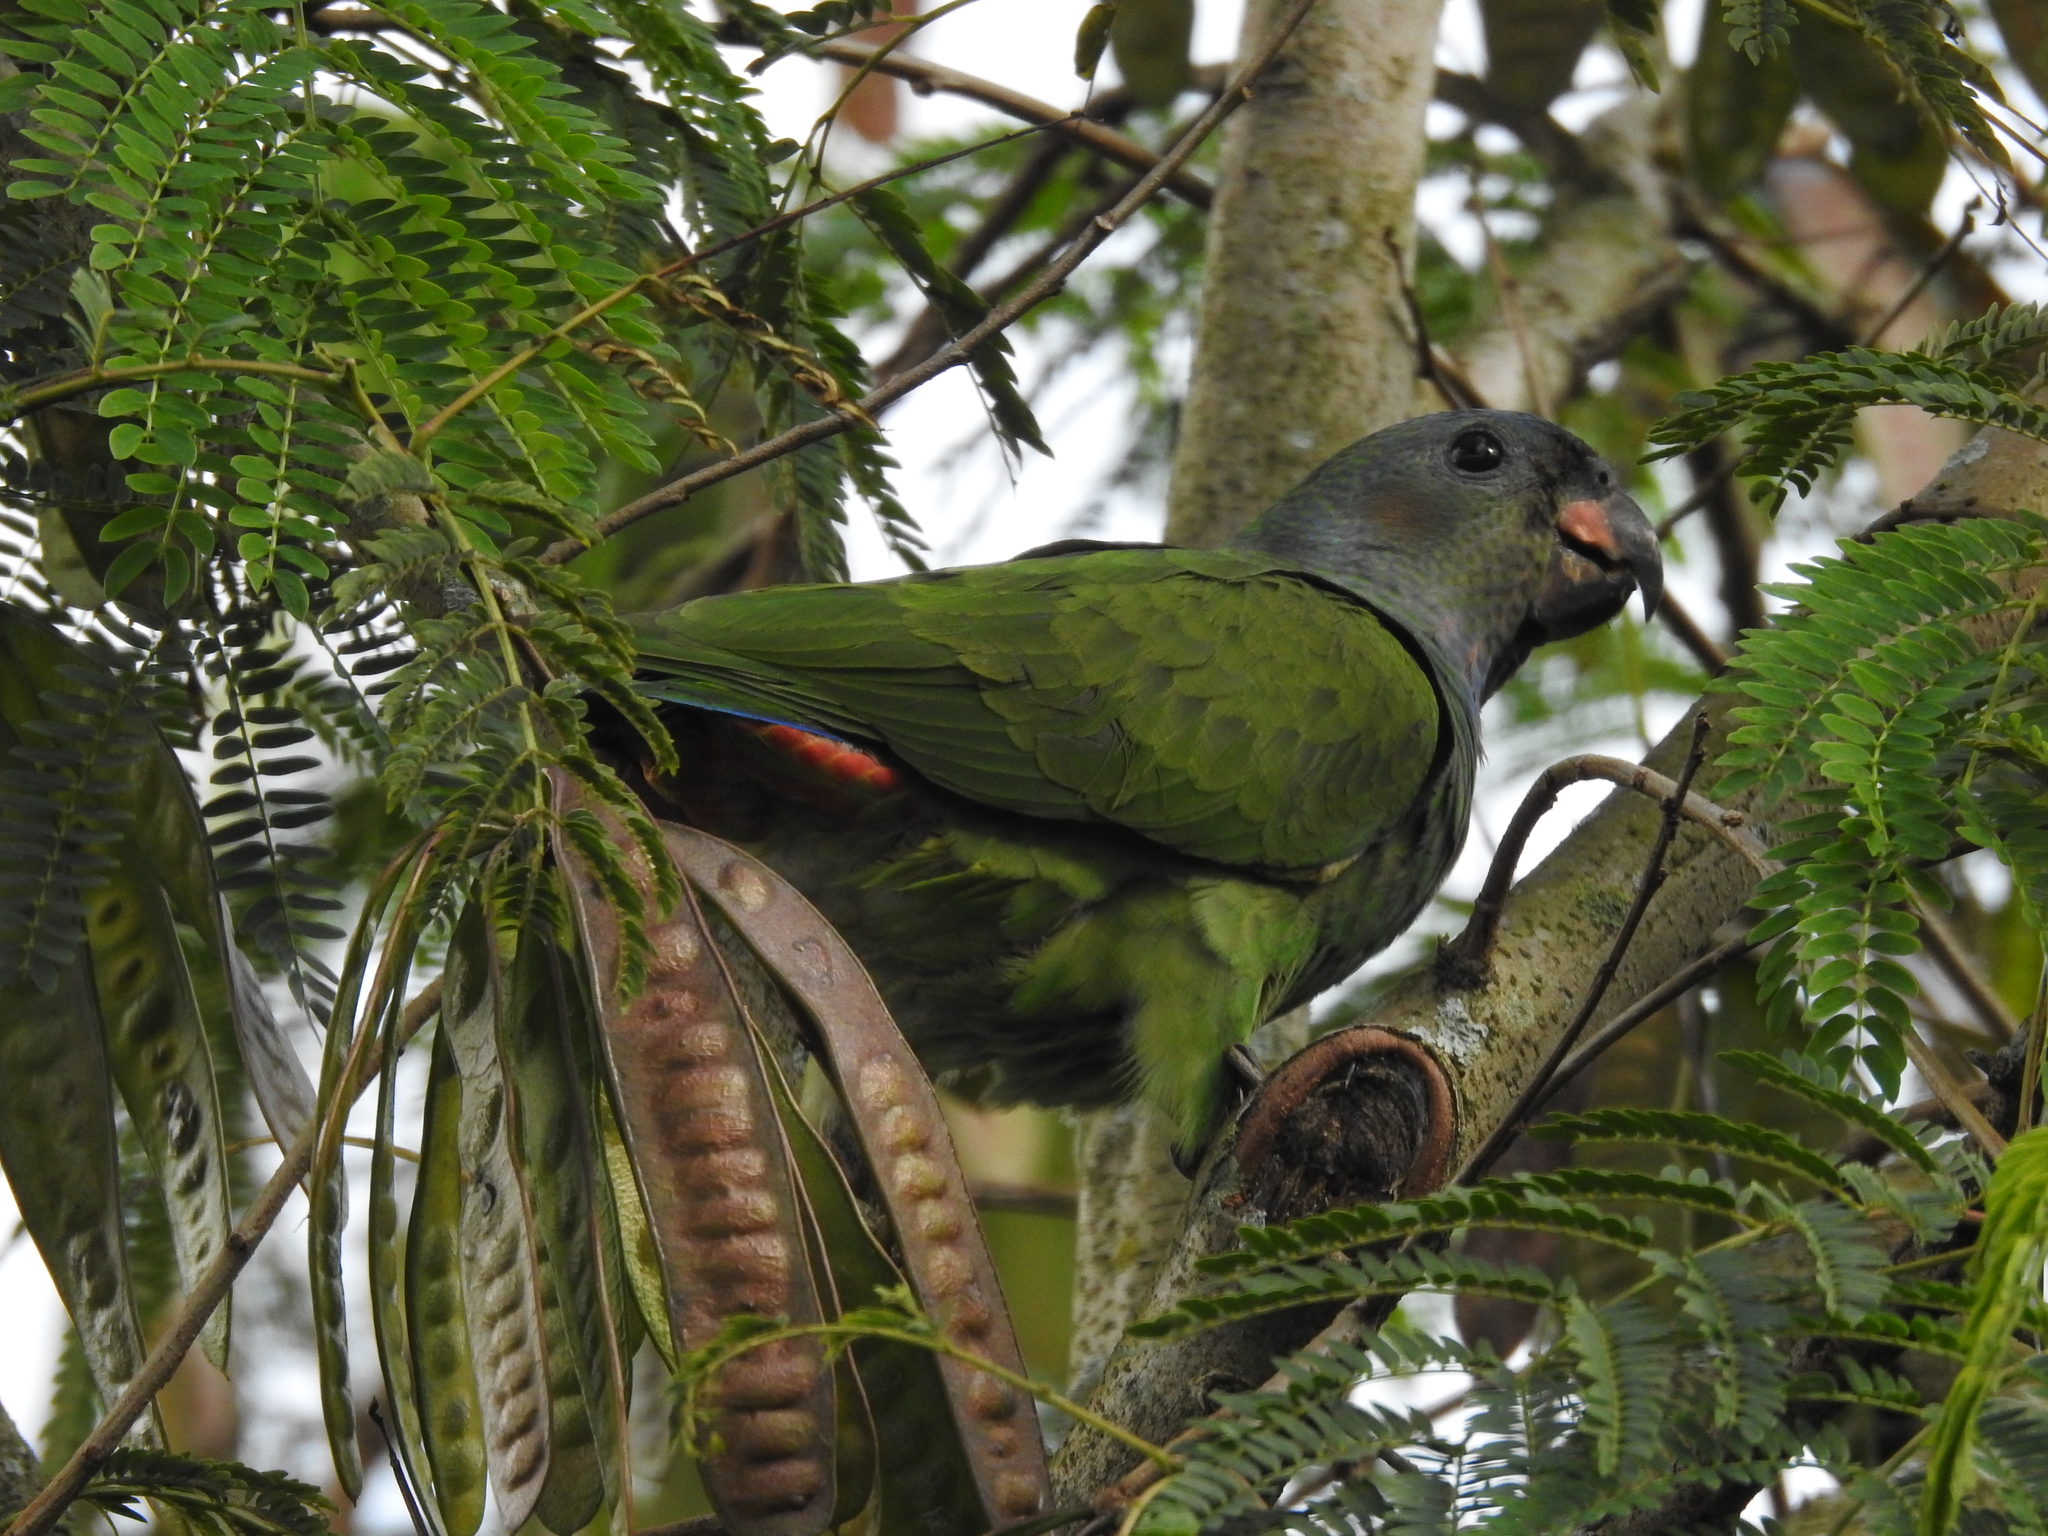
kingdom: Animalia
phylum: Chordata
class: Aves
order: Psittaciformes
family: Psittacidae
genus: Pionus
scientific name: Pionus menstruus
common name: Blue-headed parrot
